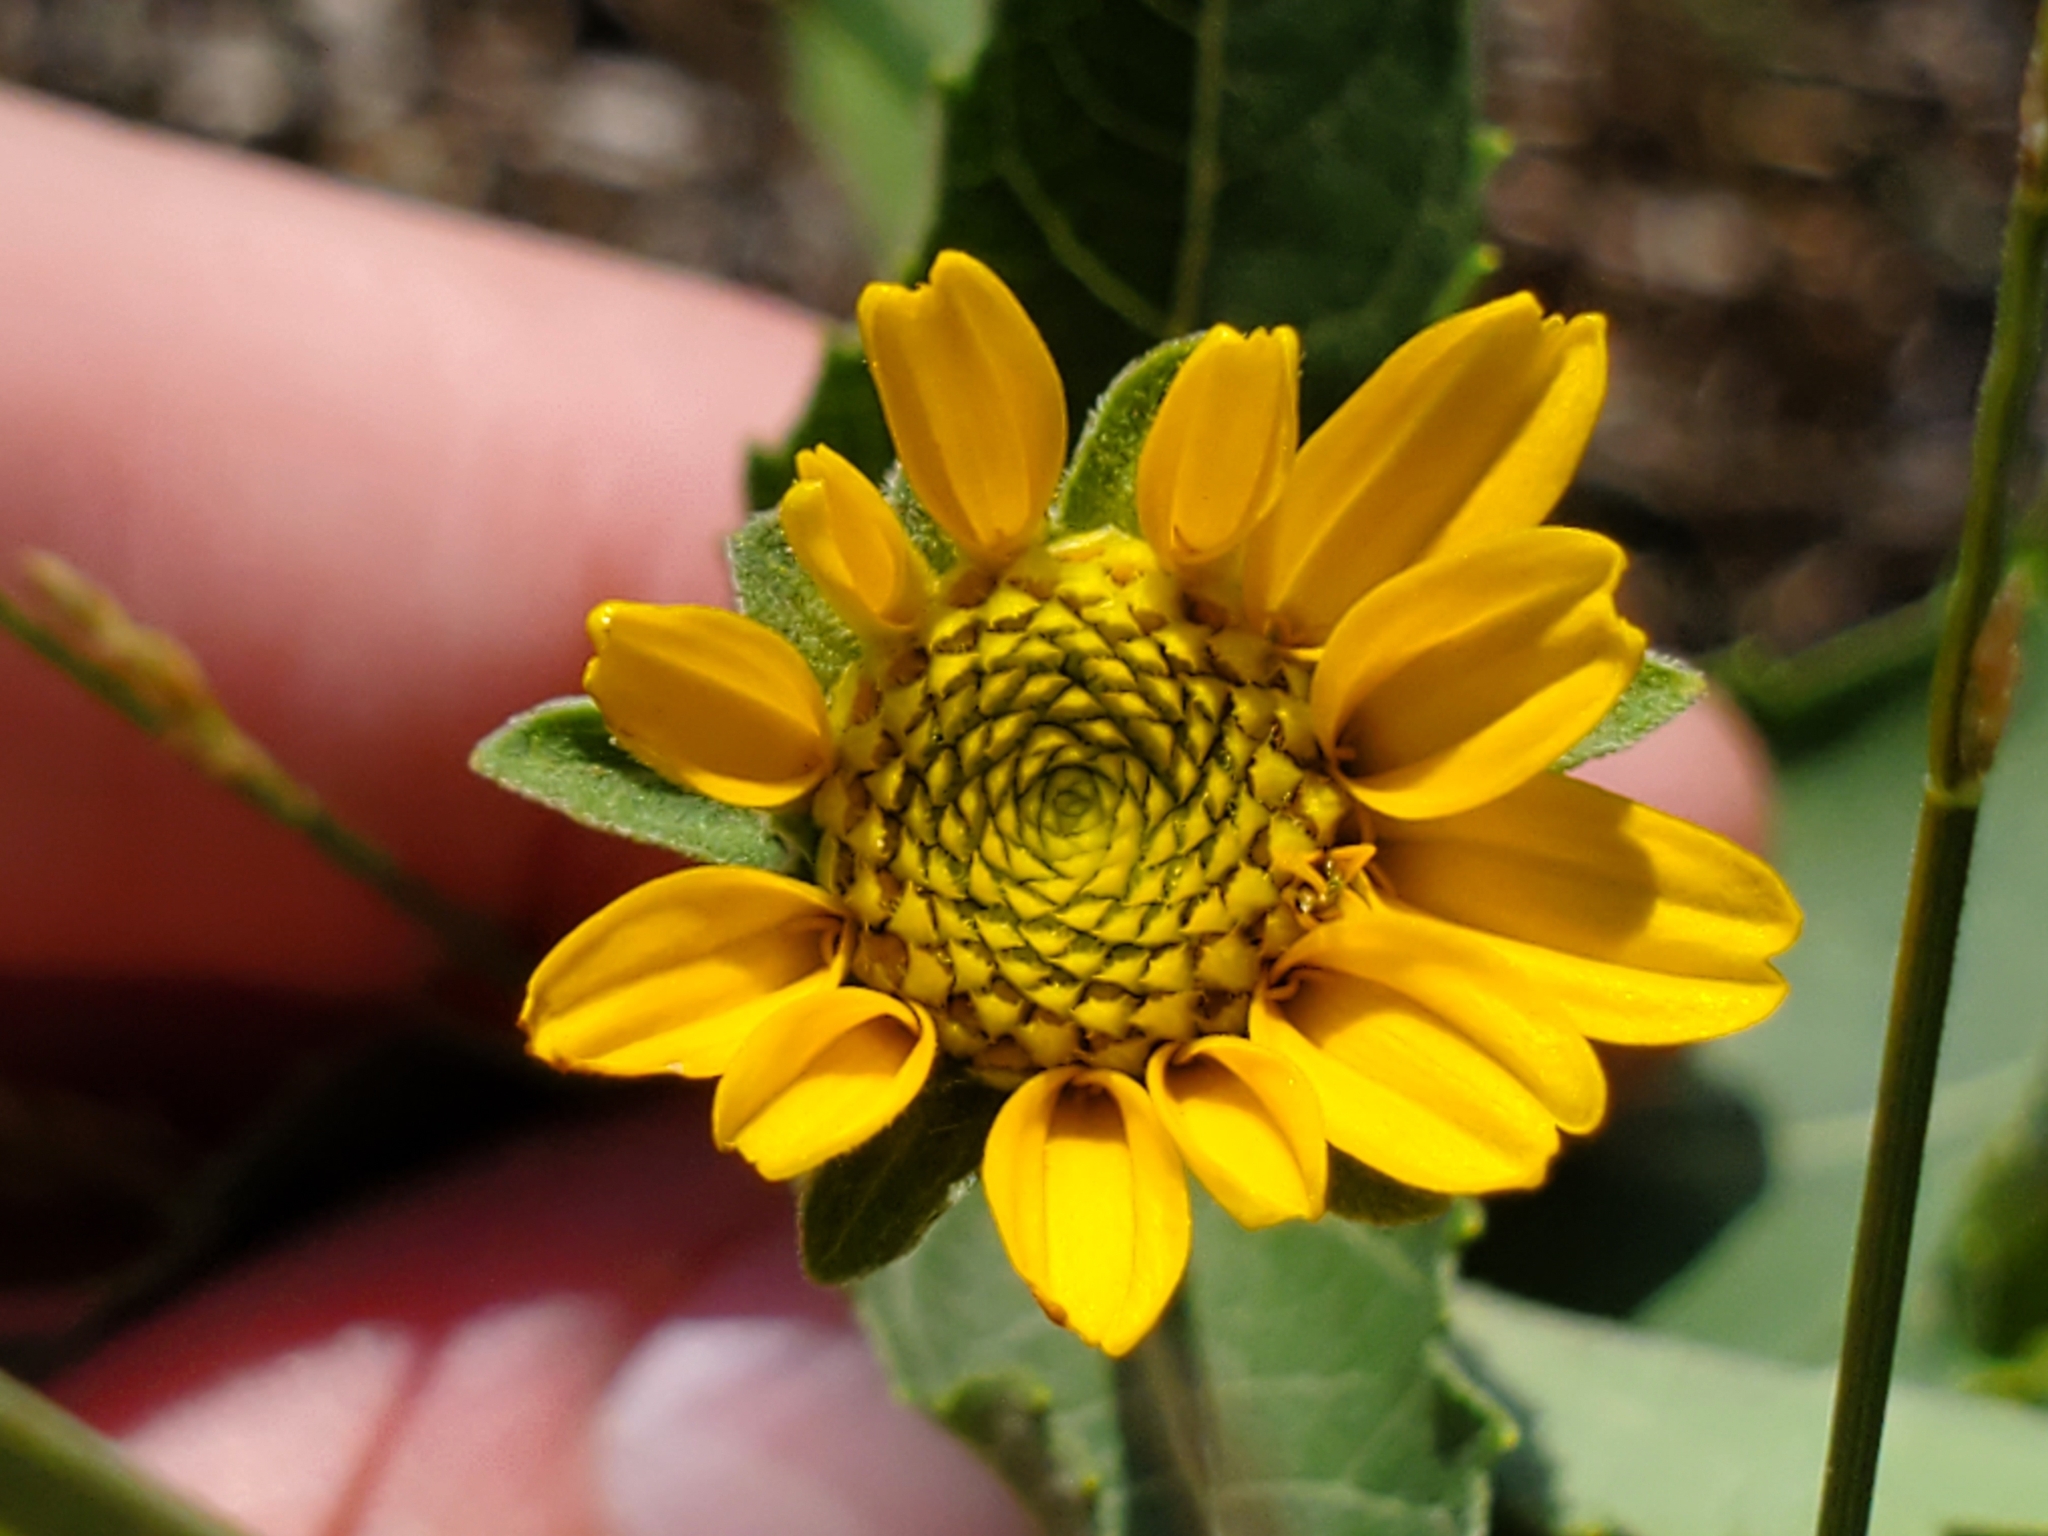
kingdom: Plantae
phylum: Tracheophyta
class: Magnoliopsida
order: Asterales
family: Asteraceae
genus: Heliopsis
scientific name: Heliopsis helianthoides
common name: False sunflower
